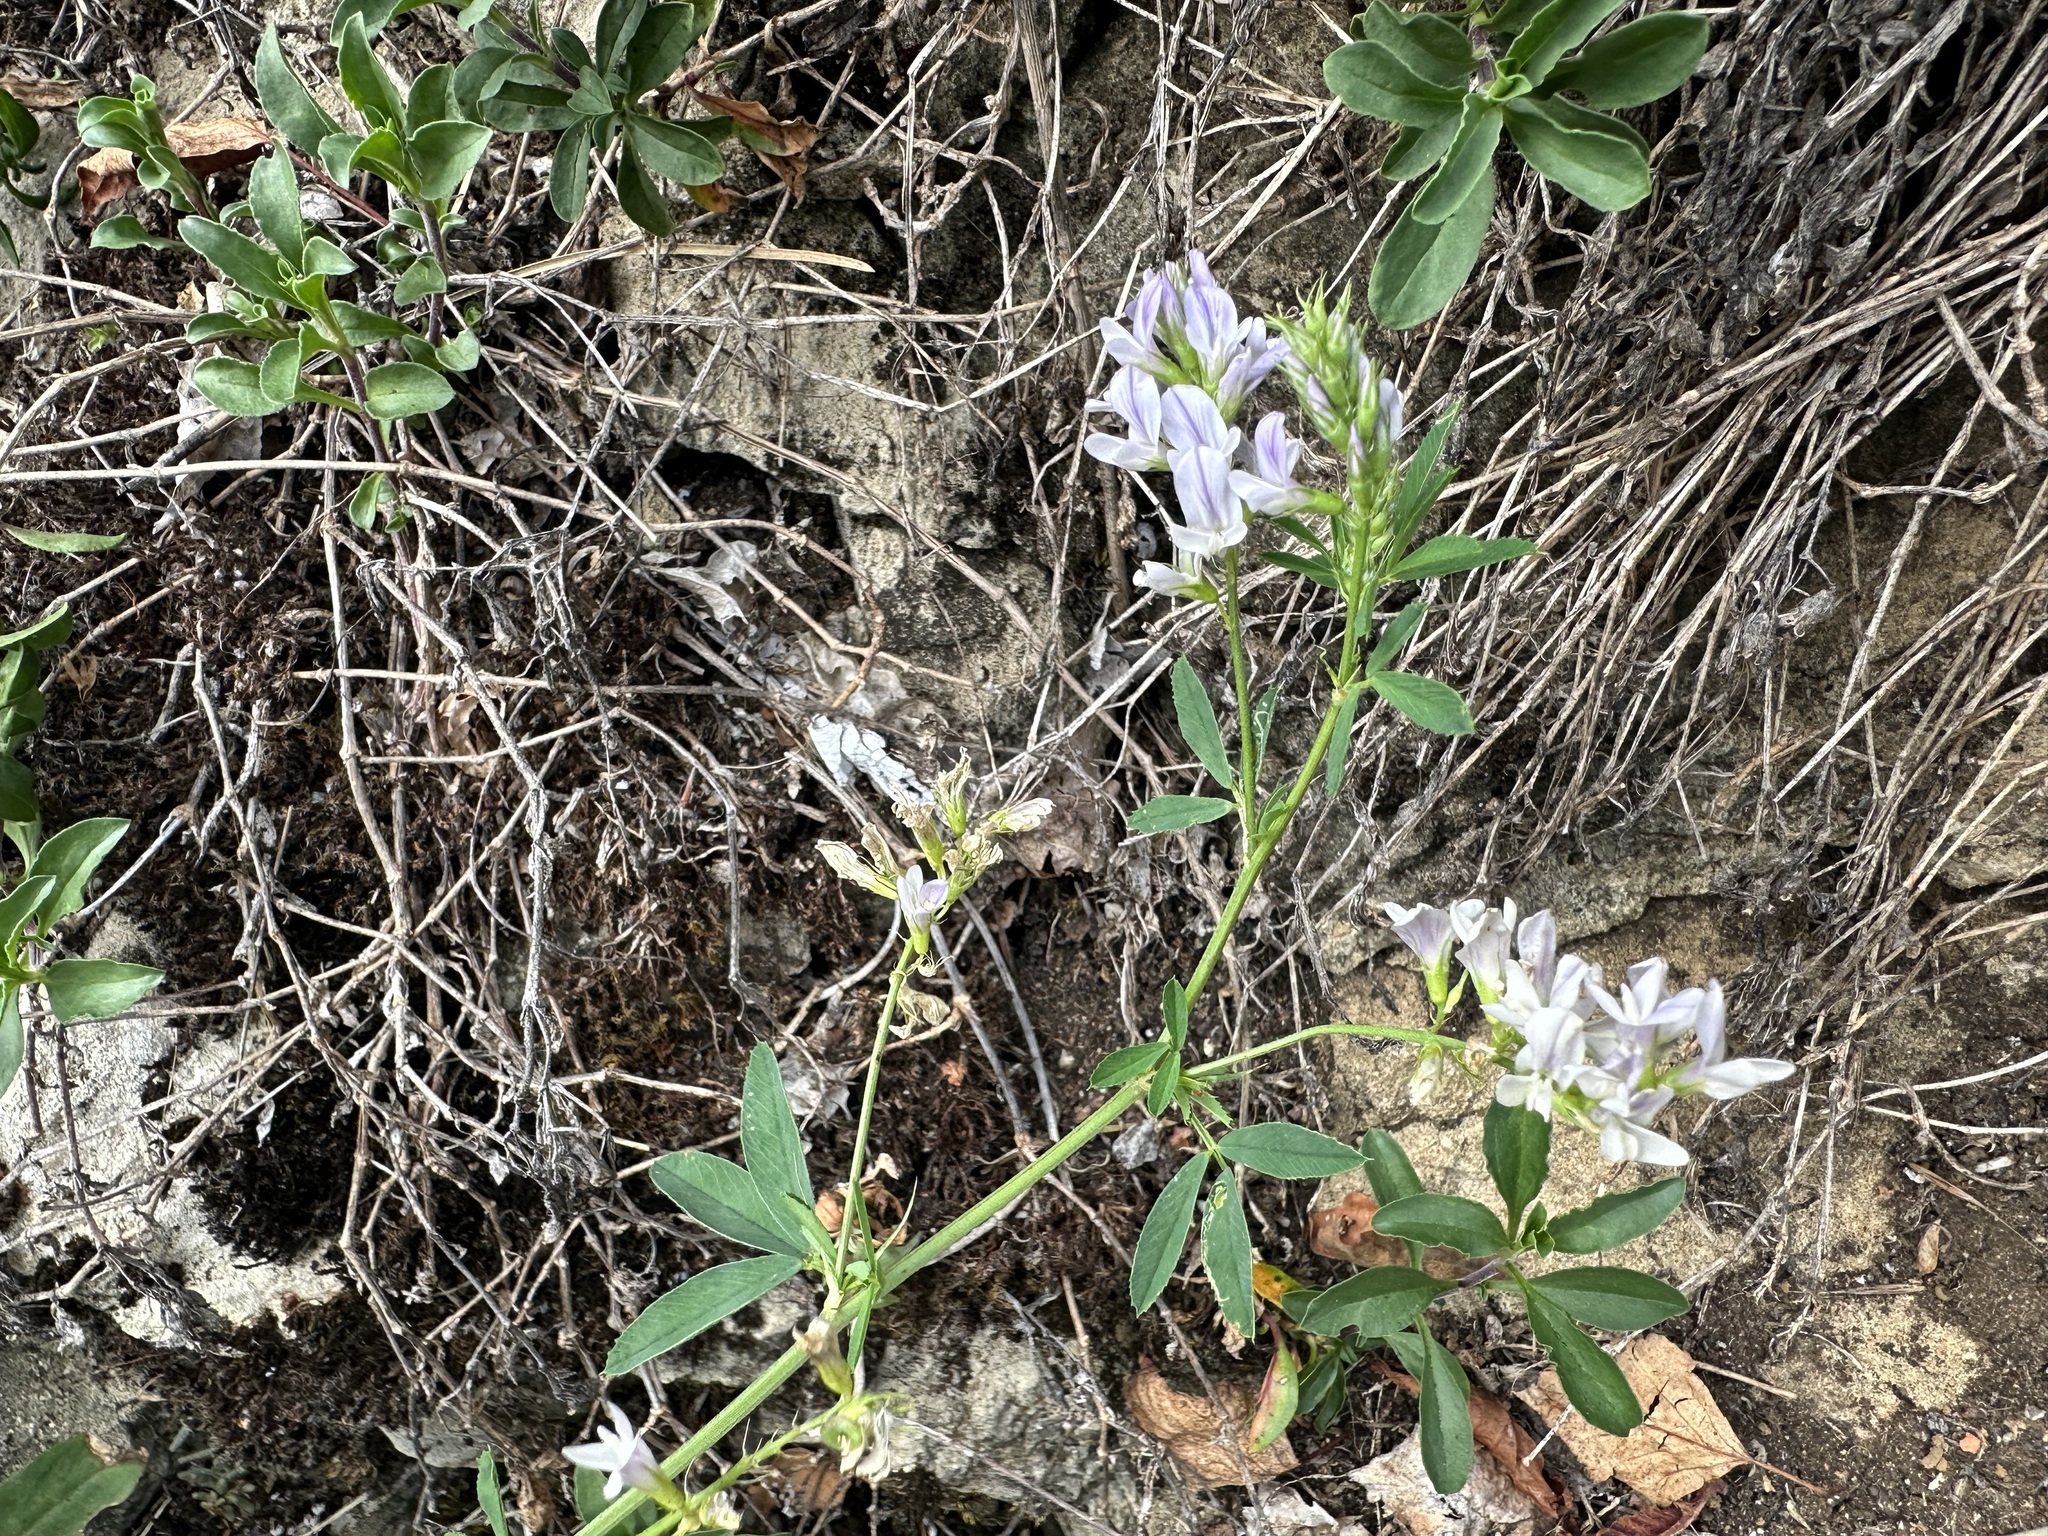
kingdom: Plantae
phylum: Tracheophyta
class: Magnoliopsida
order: Fabales
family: Fabaceae
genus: Medicago
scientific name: Medicago sativa
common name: Alfalfa
